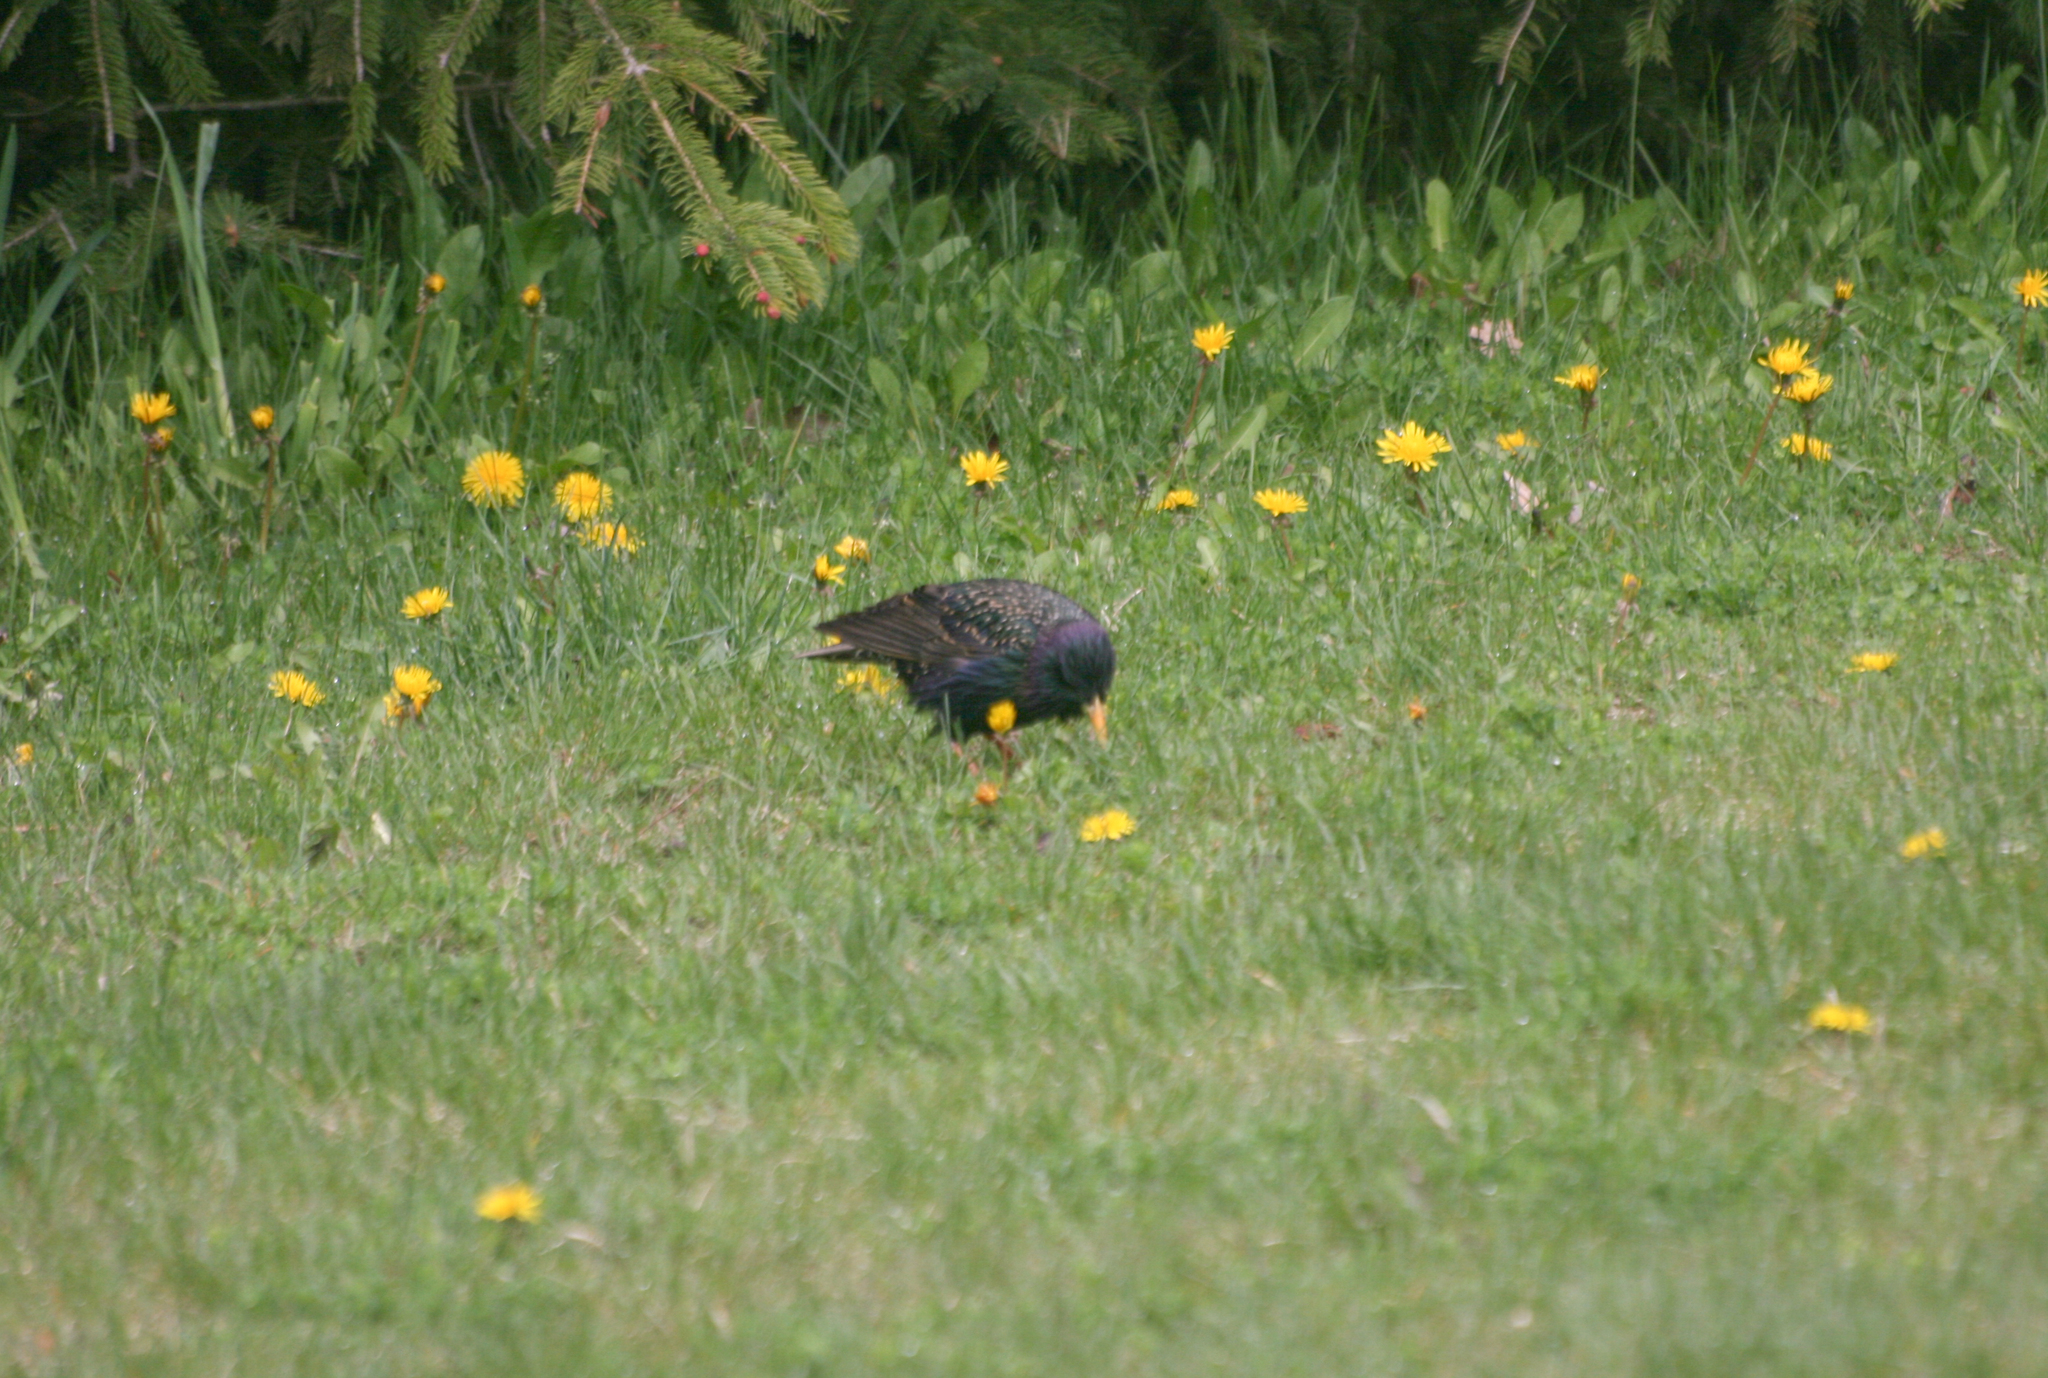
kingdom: Animalia
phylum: Chordata
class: Aves
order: Passeriformes
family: Sturnidae
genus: Sturnus
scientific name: Sturnus vulgaris
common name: Common starling
